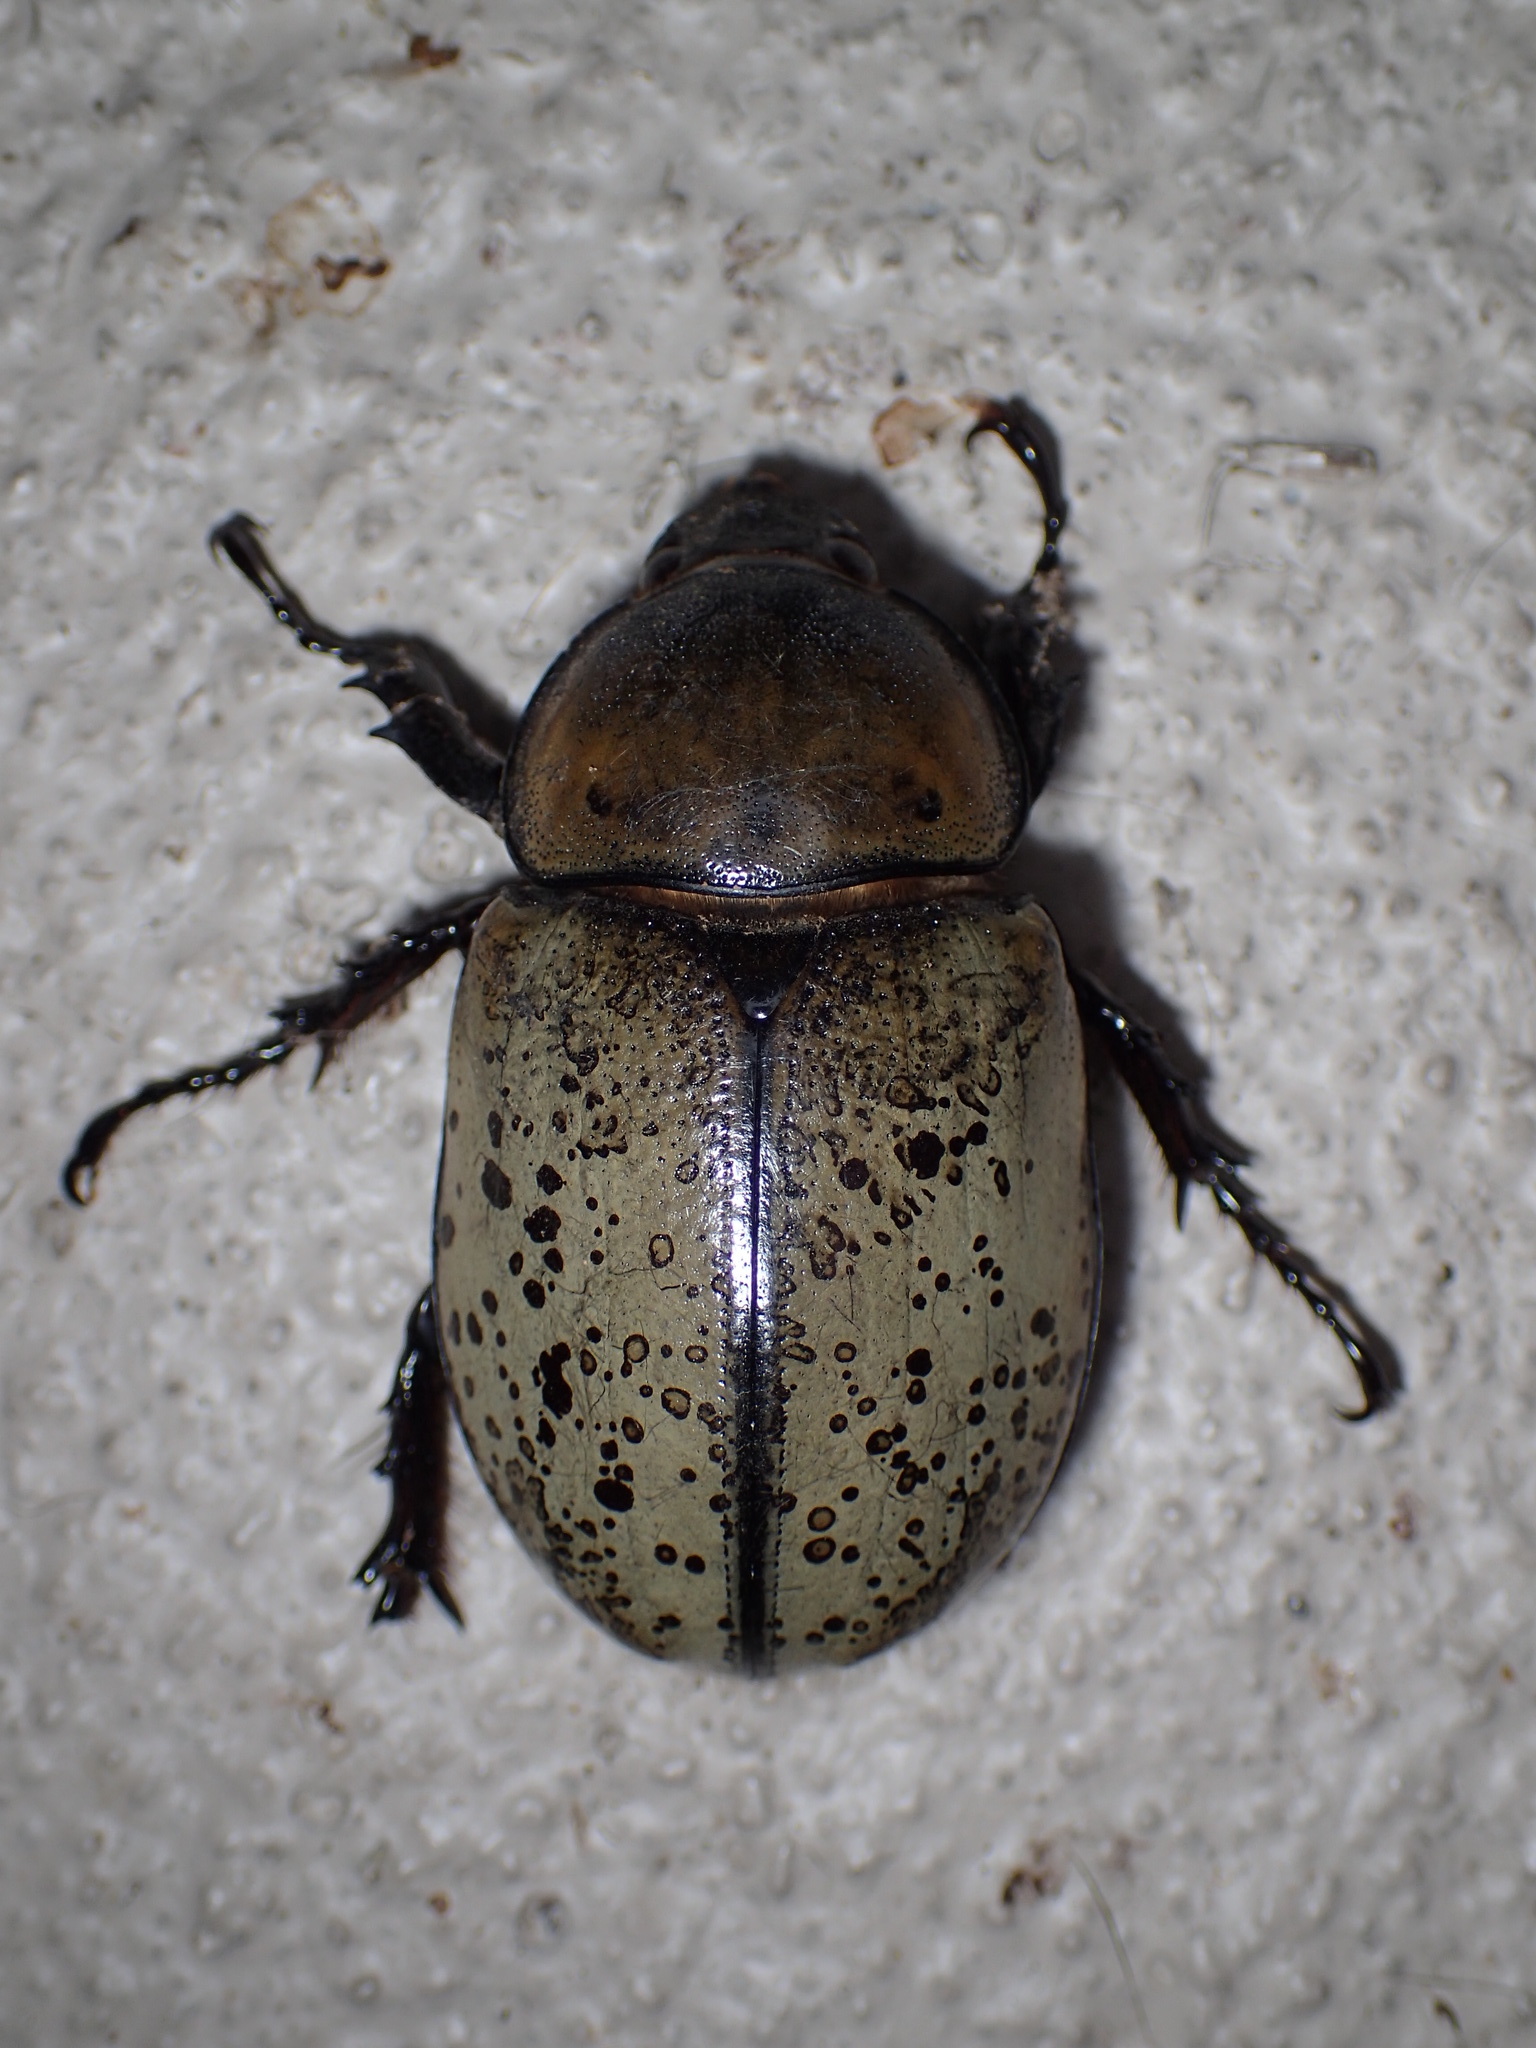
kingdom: Animalia
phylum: Arthropoda
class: Insecta
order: Coleoptera
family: Scarabaeidae
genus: Dynastes
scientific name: Dynastes tityus
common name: Eastern hercules beetle
